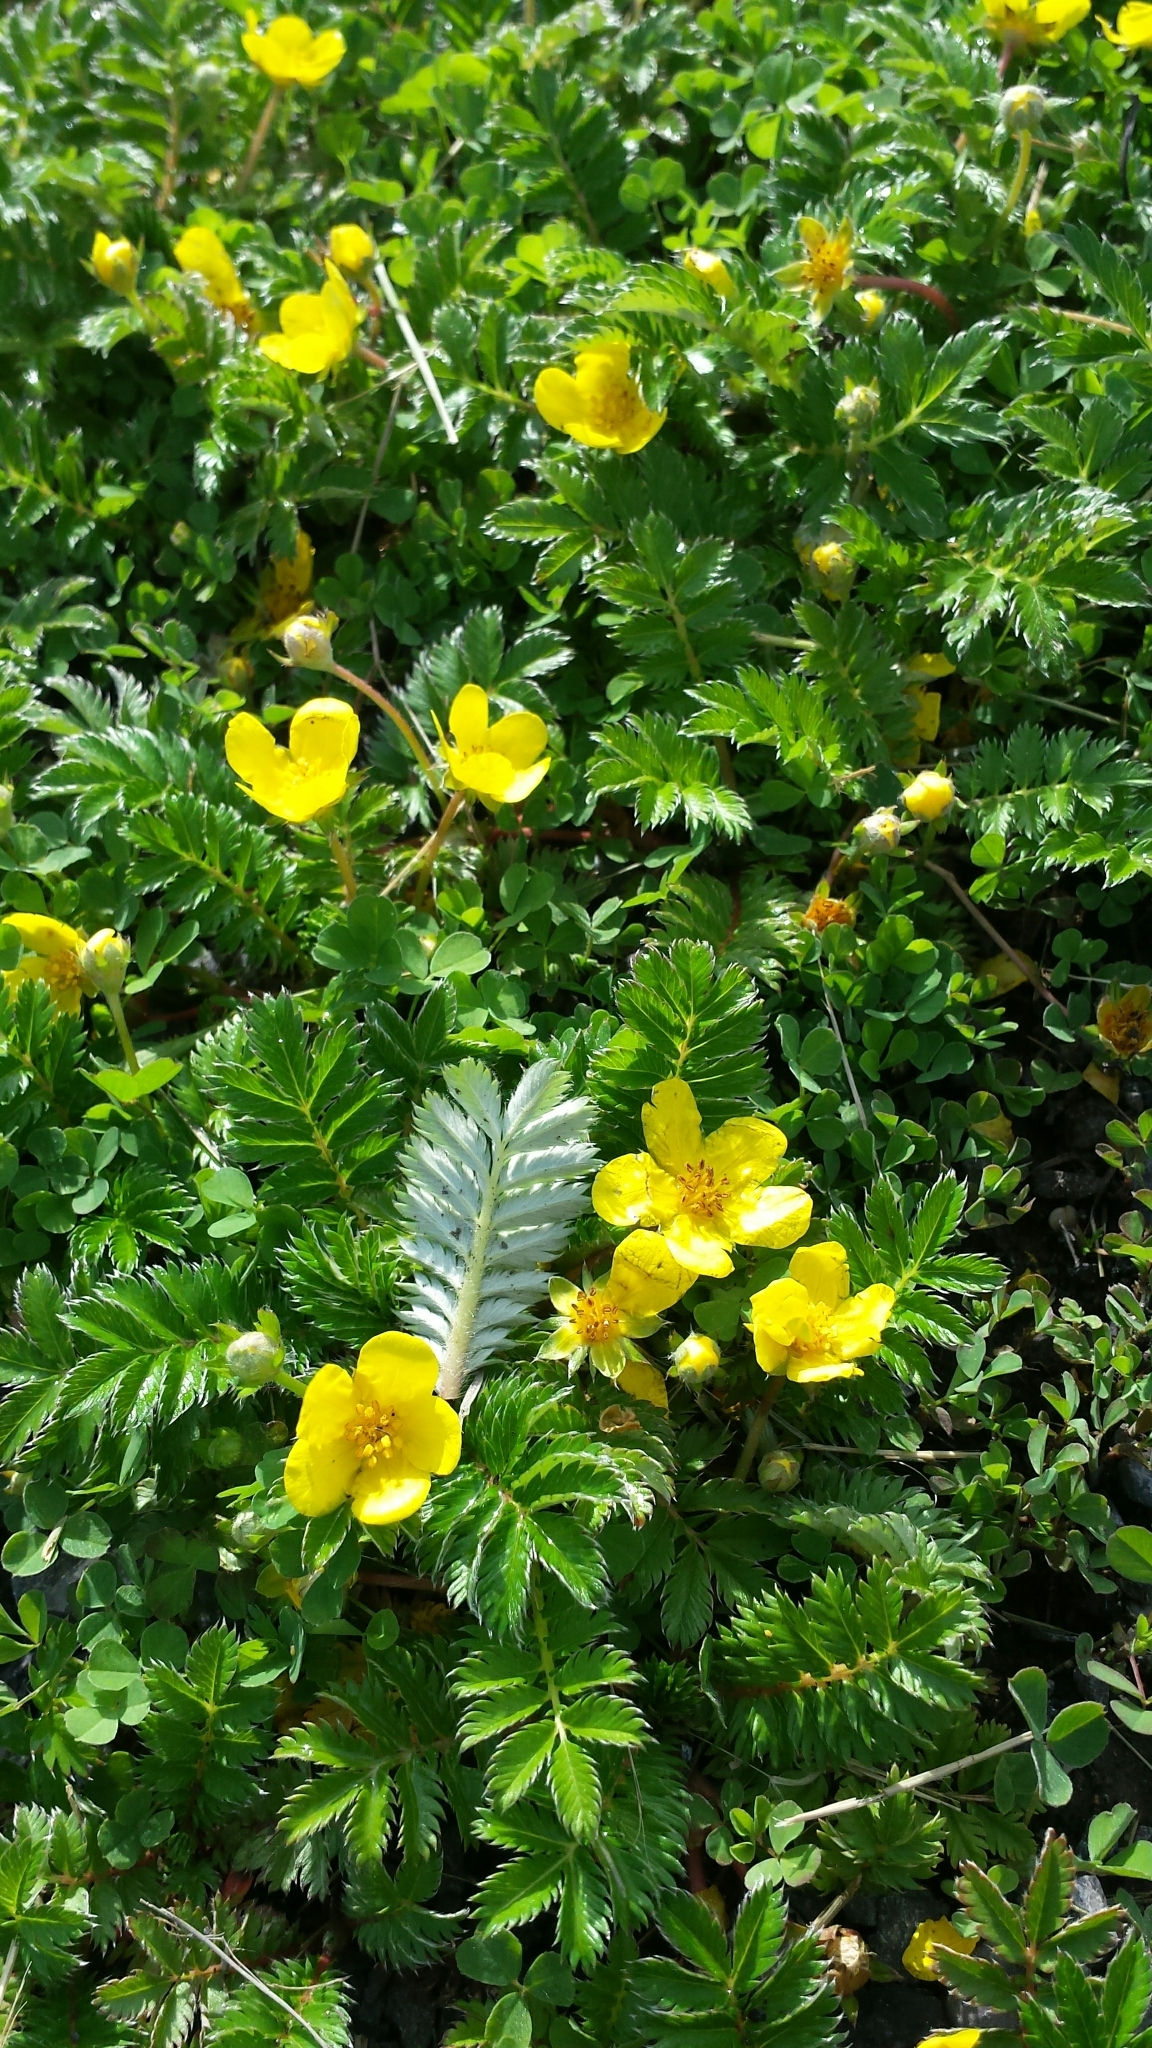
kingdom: Plantae
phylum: Tracheophyta
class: Magnoliopsida
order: Rosales
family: Rosaceae
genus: Argentina
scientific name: Argentina anserina
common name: Common silverweed
